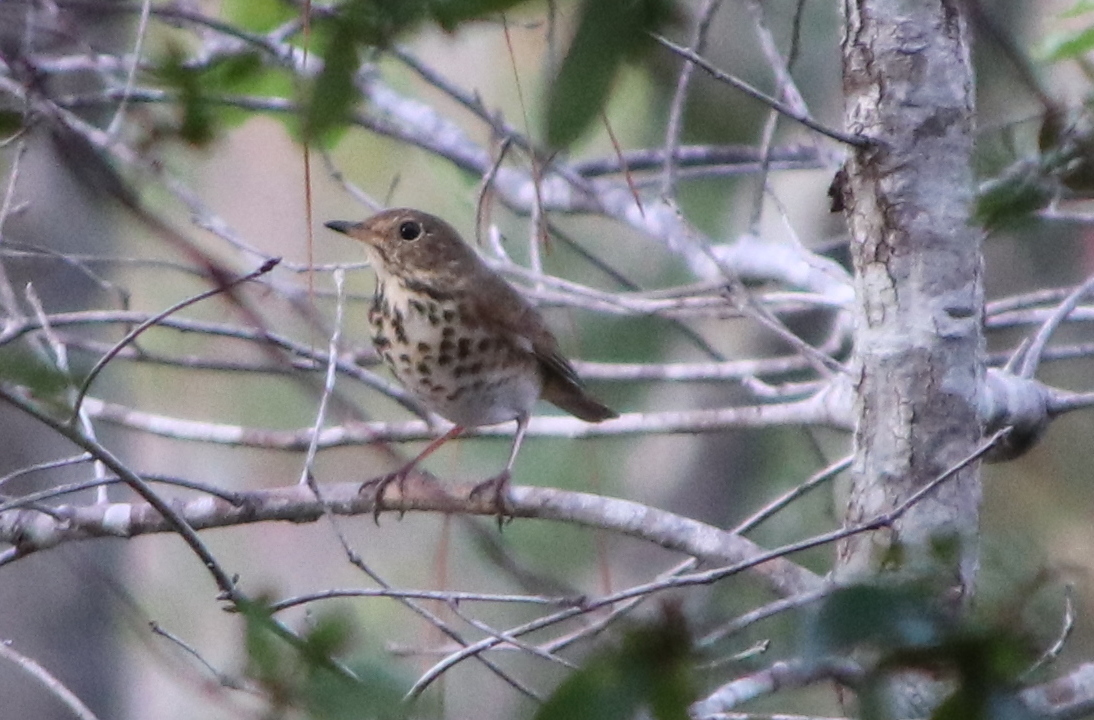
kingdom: Animalia
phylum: Chordata
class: Aves
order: Passeriformes
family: Turdidae
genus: Catharus
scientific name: Catharus guttatus
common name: Hermit thrush
